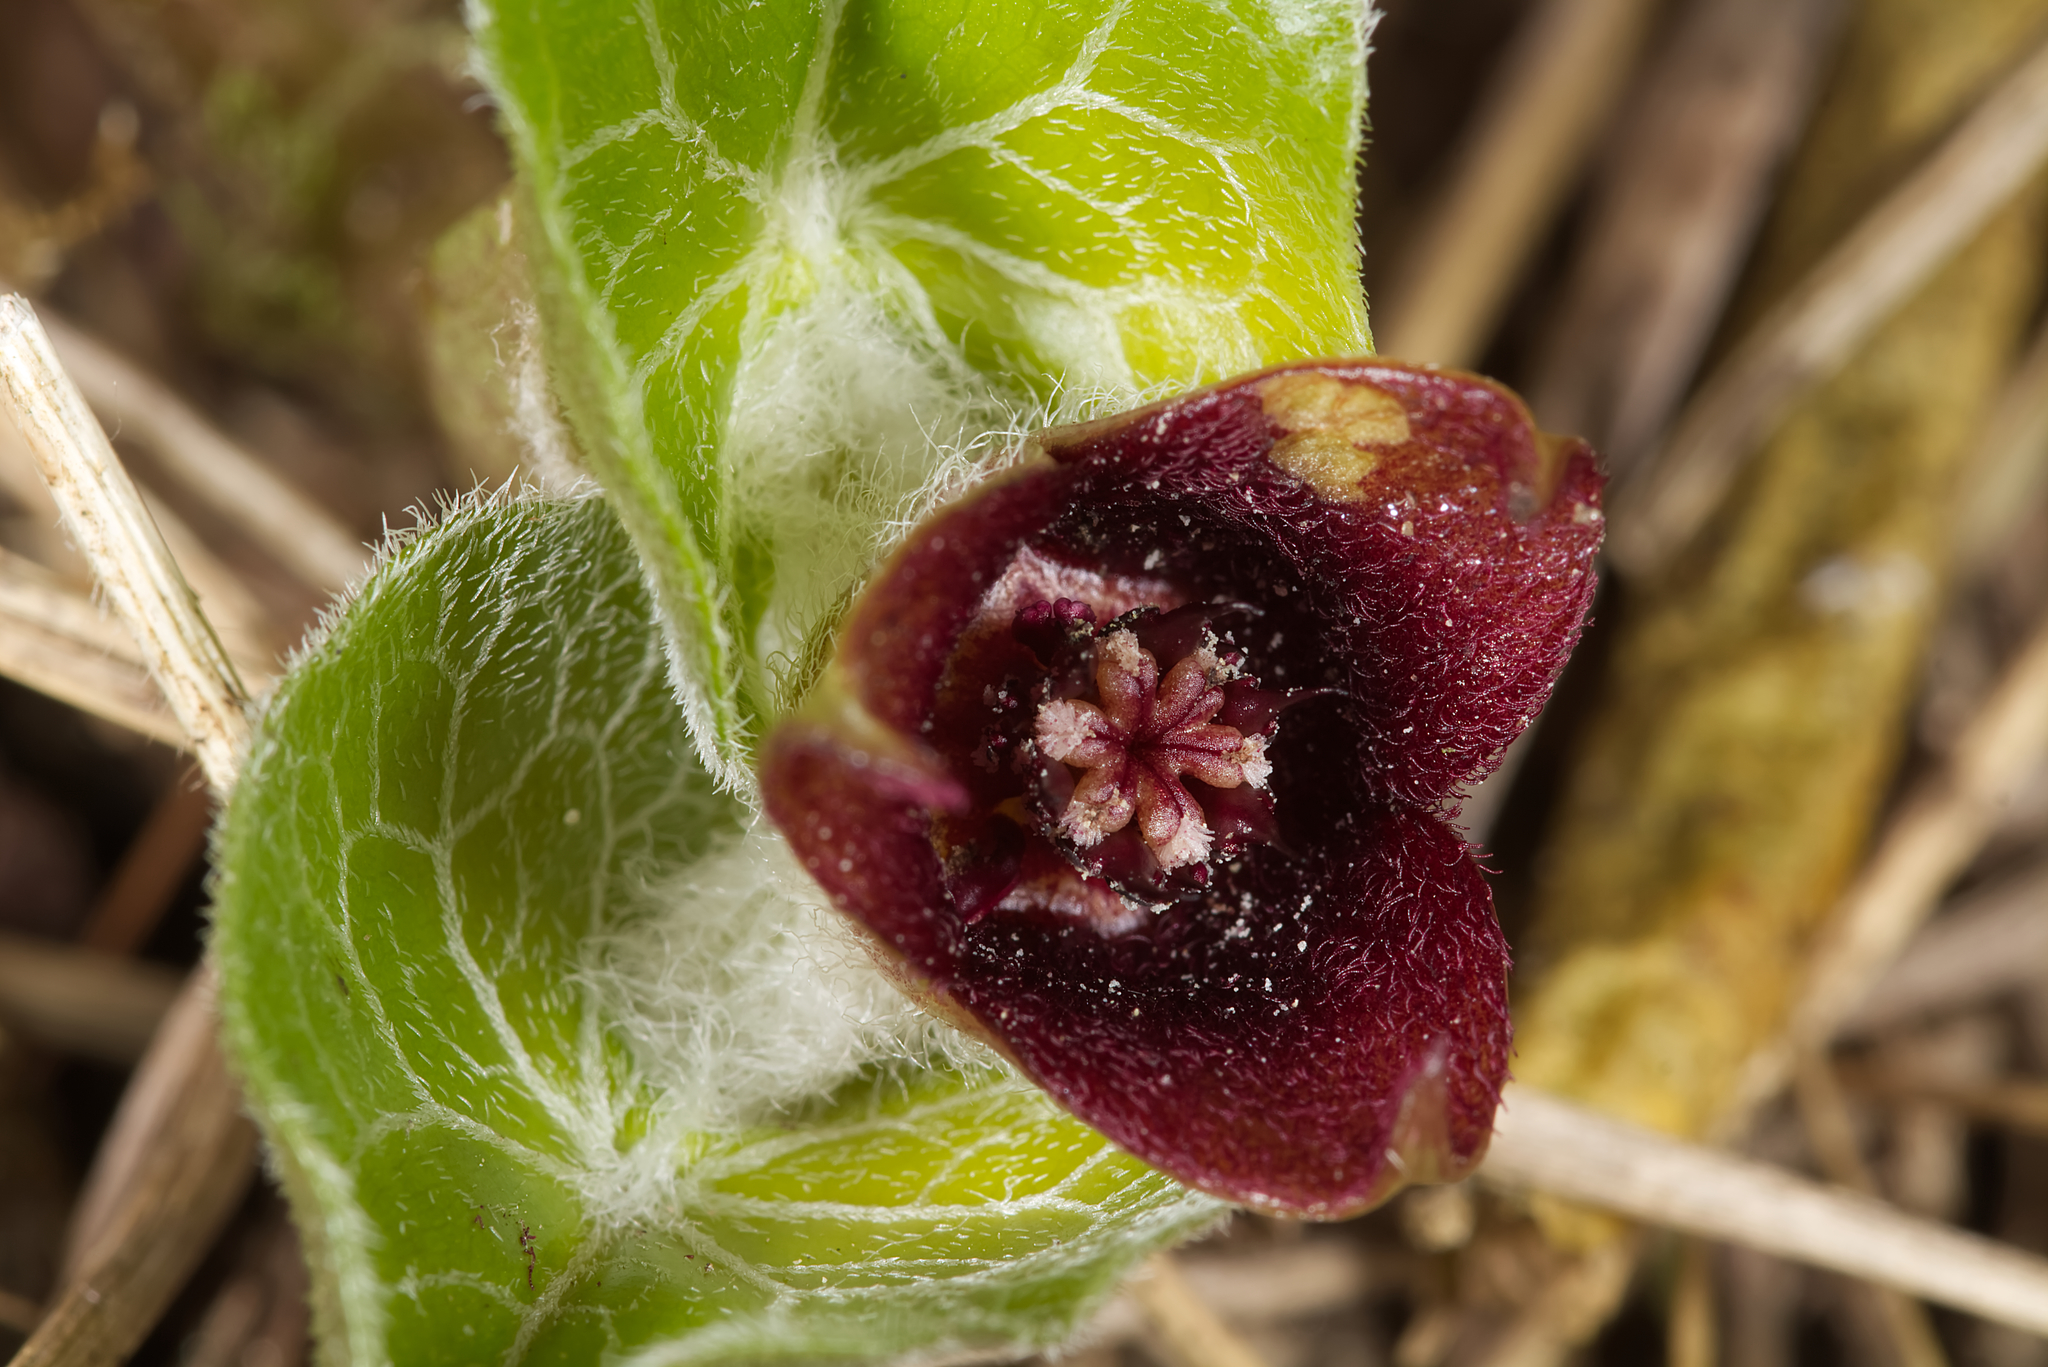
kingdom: Plantae
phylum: Tracheophyta
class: Magnoliopsida
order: Piperales
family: Aristolochiaceae
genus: Asarum
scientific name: Asarum europaeum
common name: Asarabacca
